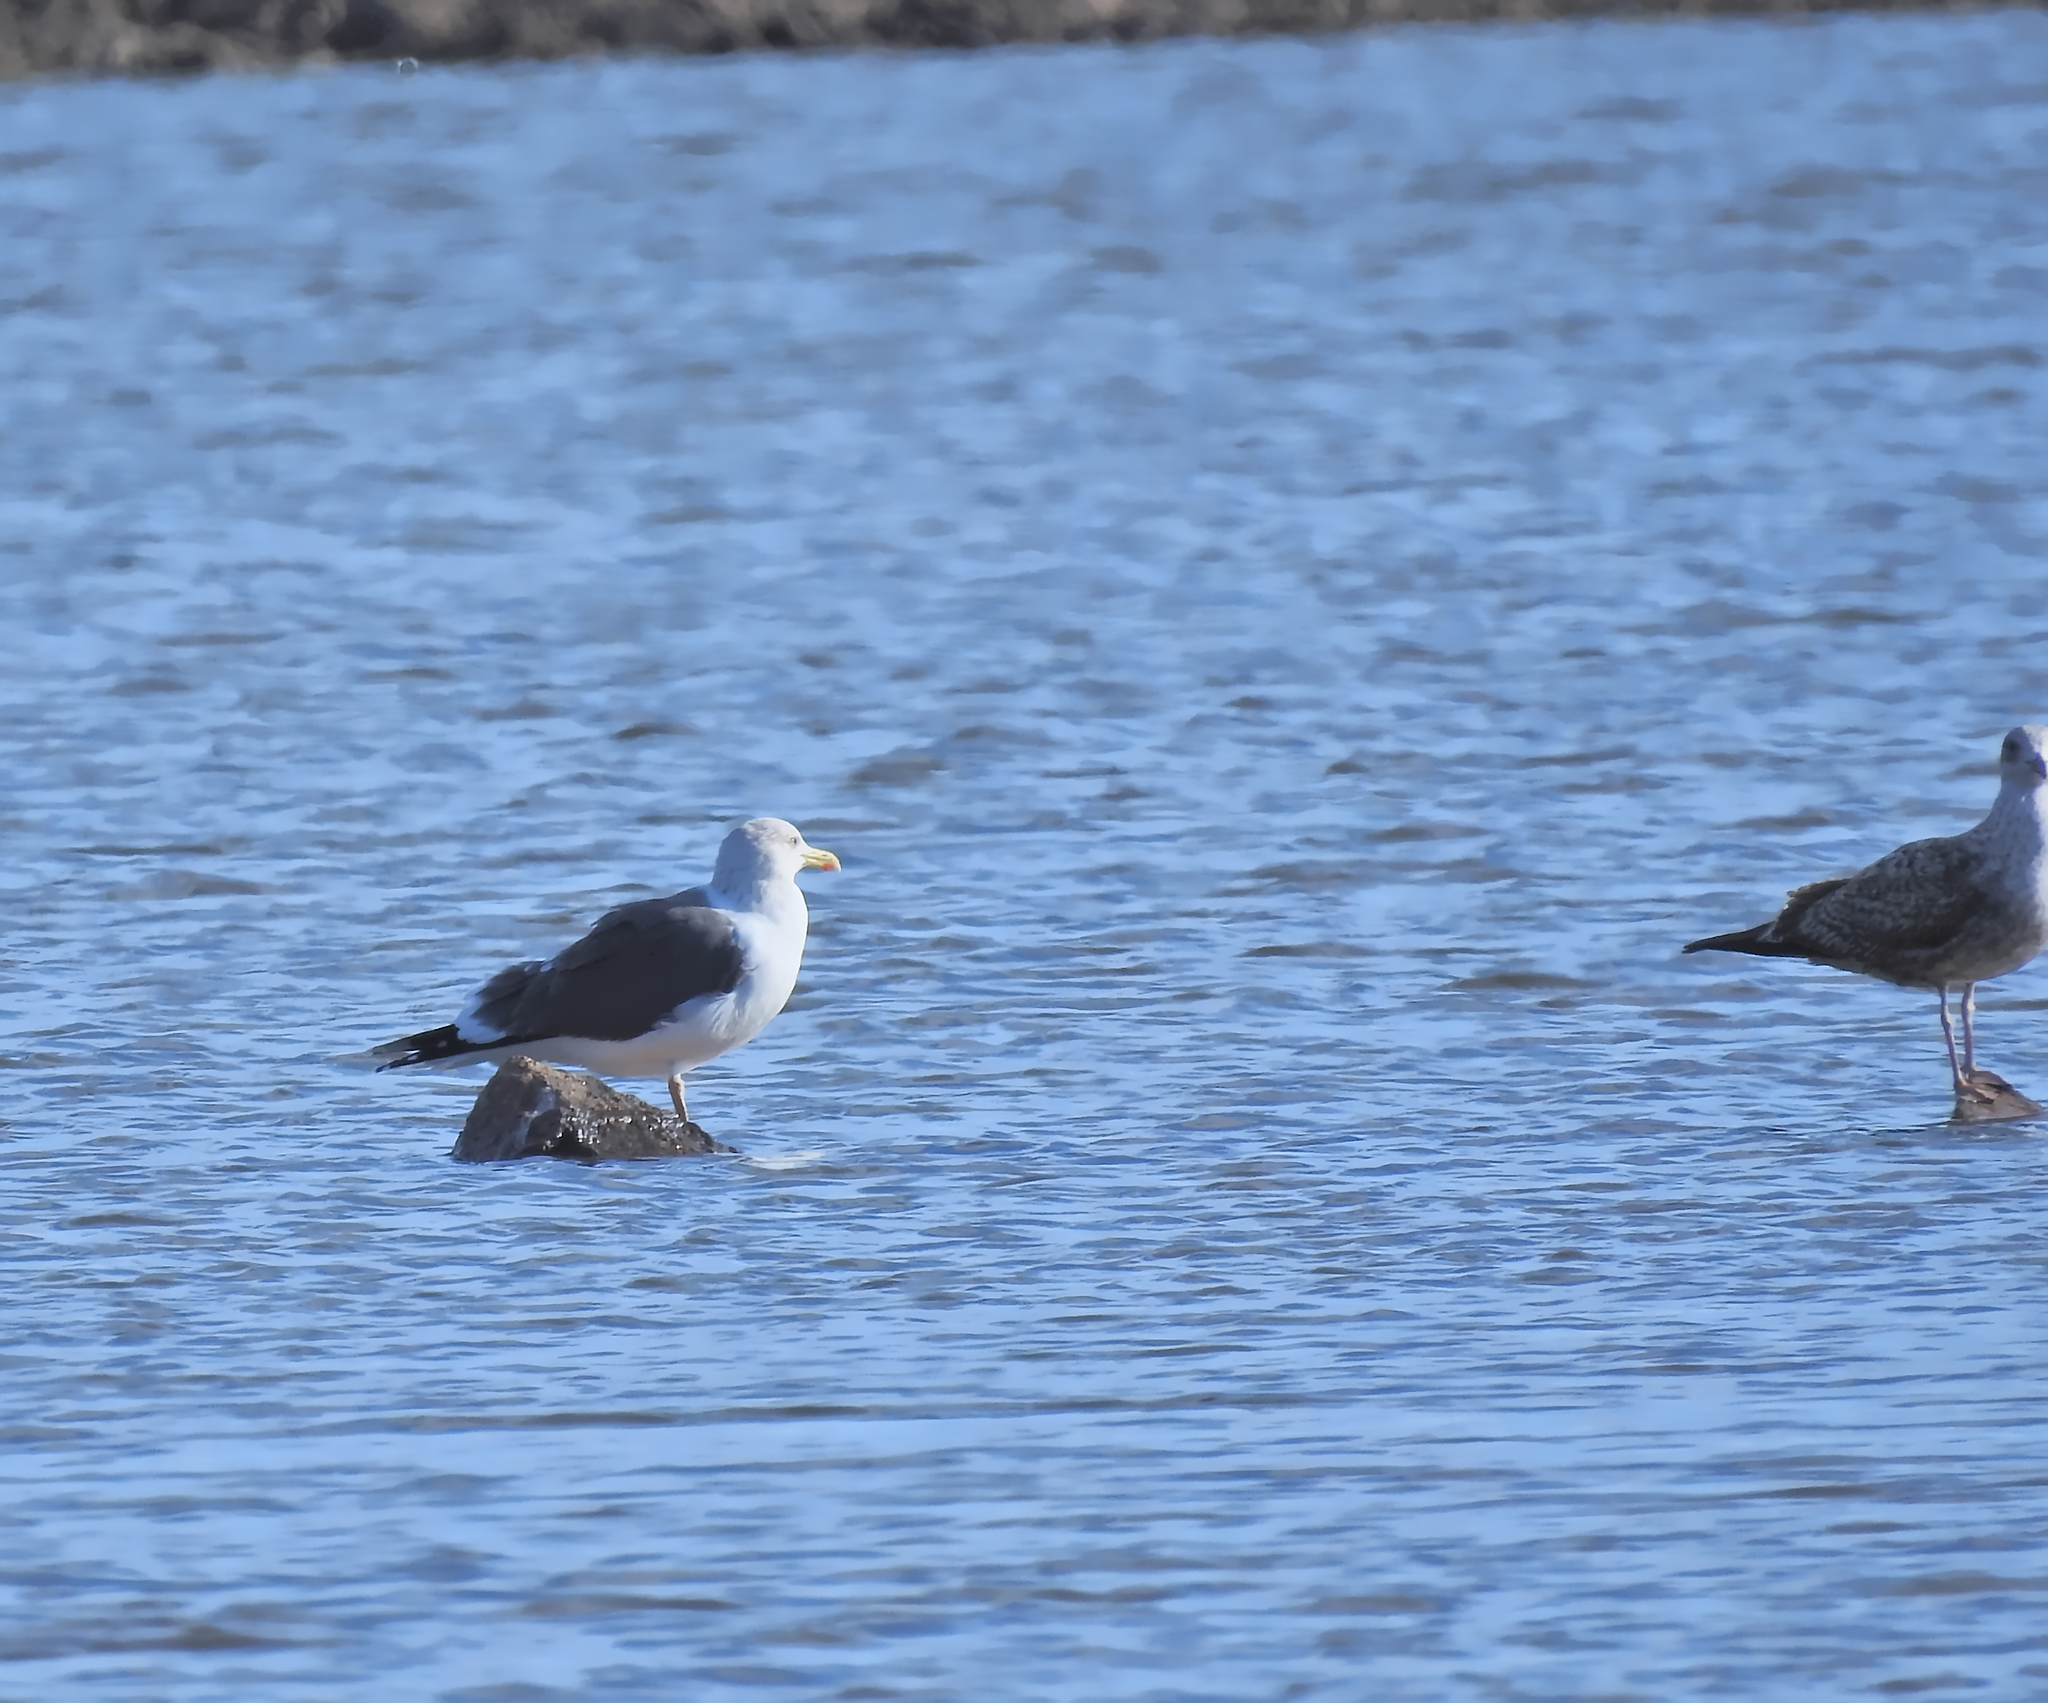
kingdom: Animalia
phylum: Chordata
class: Aves
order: Charadriiformes
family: Laridae
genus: Larus
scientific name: Larus fuscus
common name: Lesser black-backed gull
